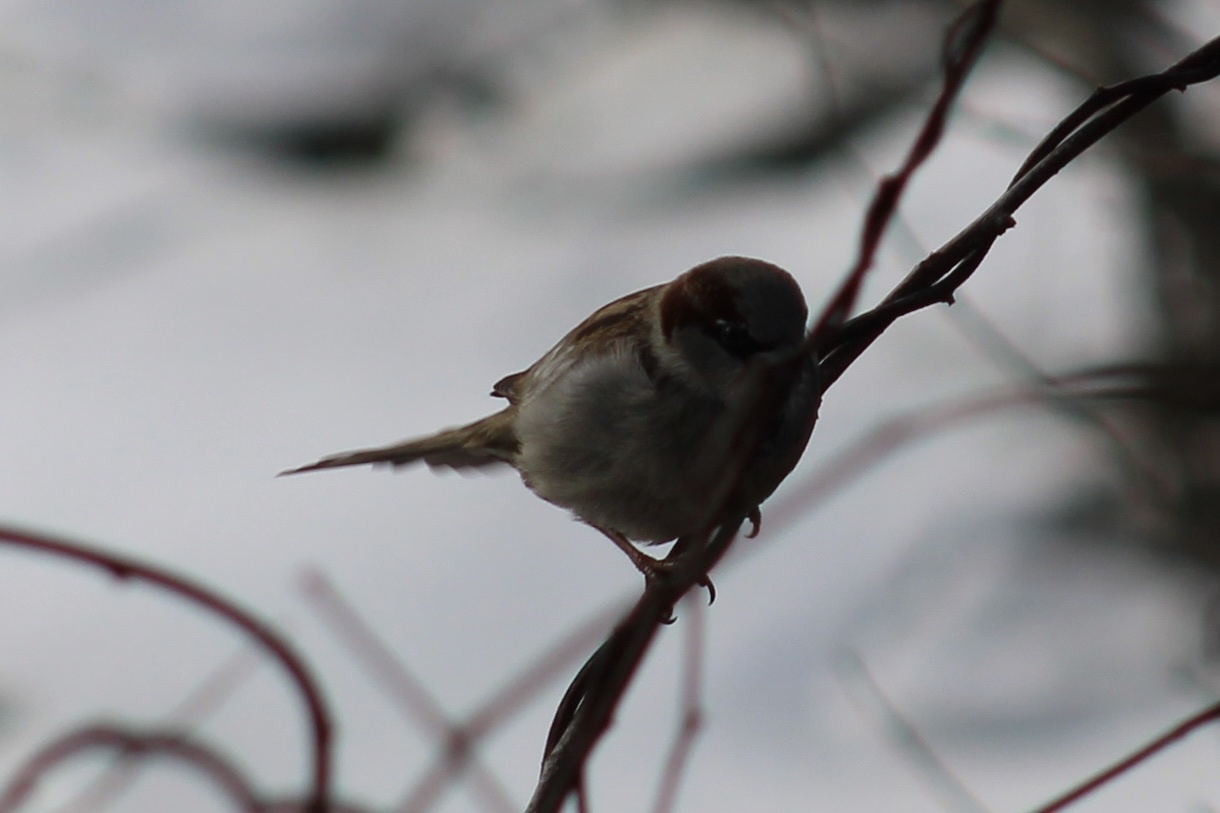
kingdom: Animalia
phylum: Chordata
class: Aves
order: Passeriformes
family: Passeridae
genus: Passer
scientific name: Passer domesticus
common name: House sparrow
